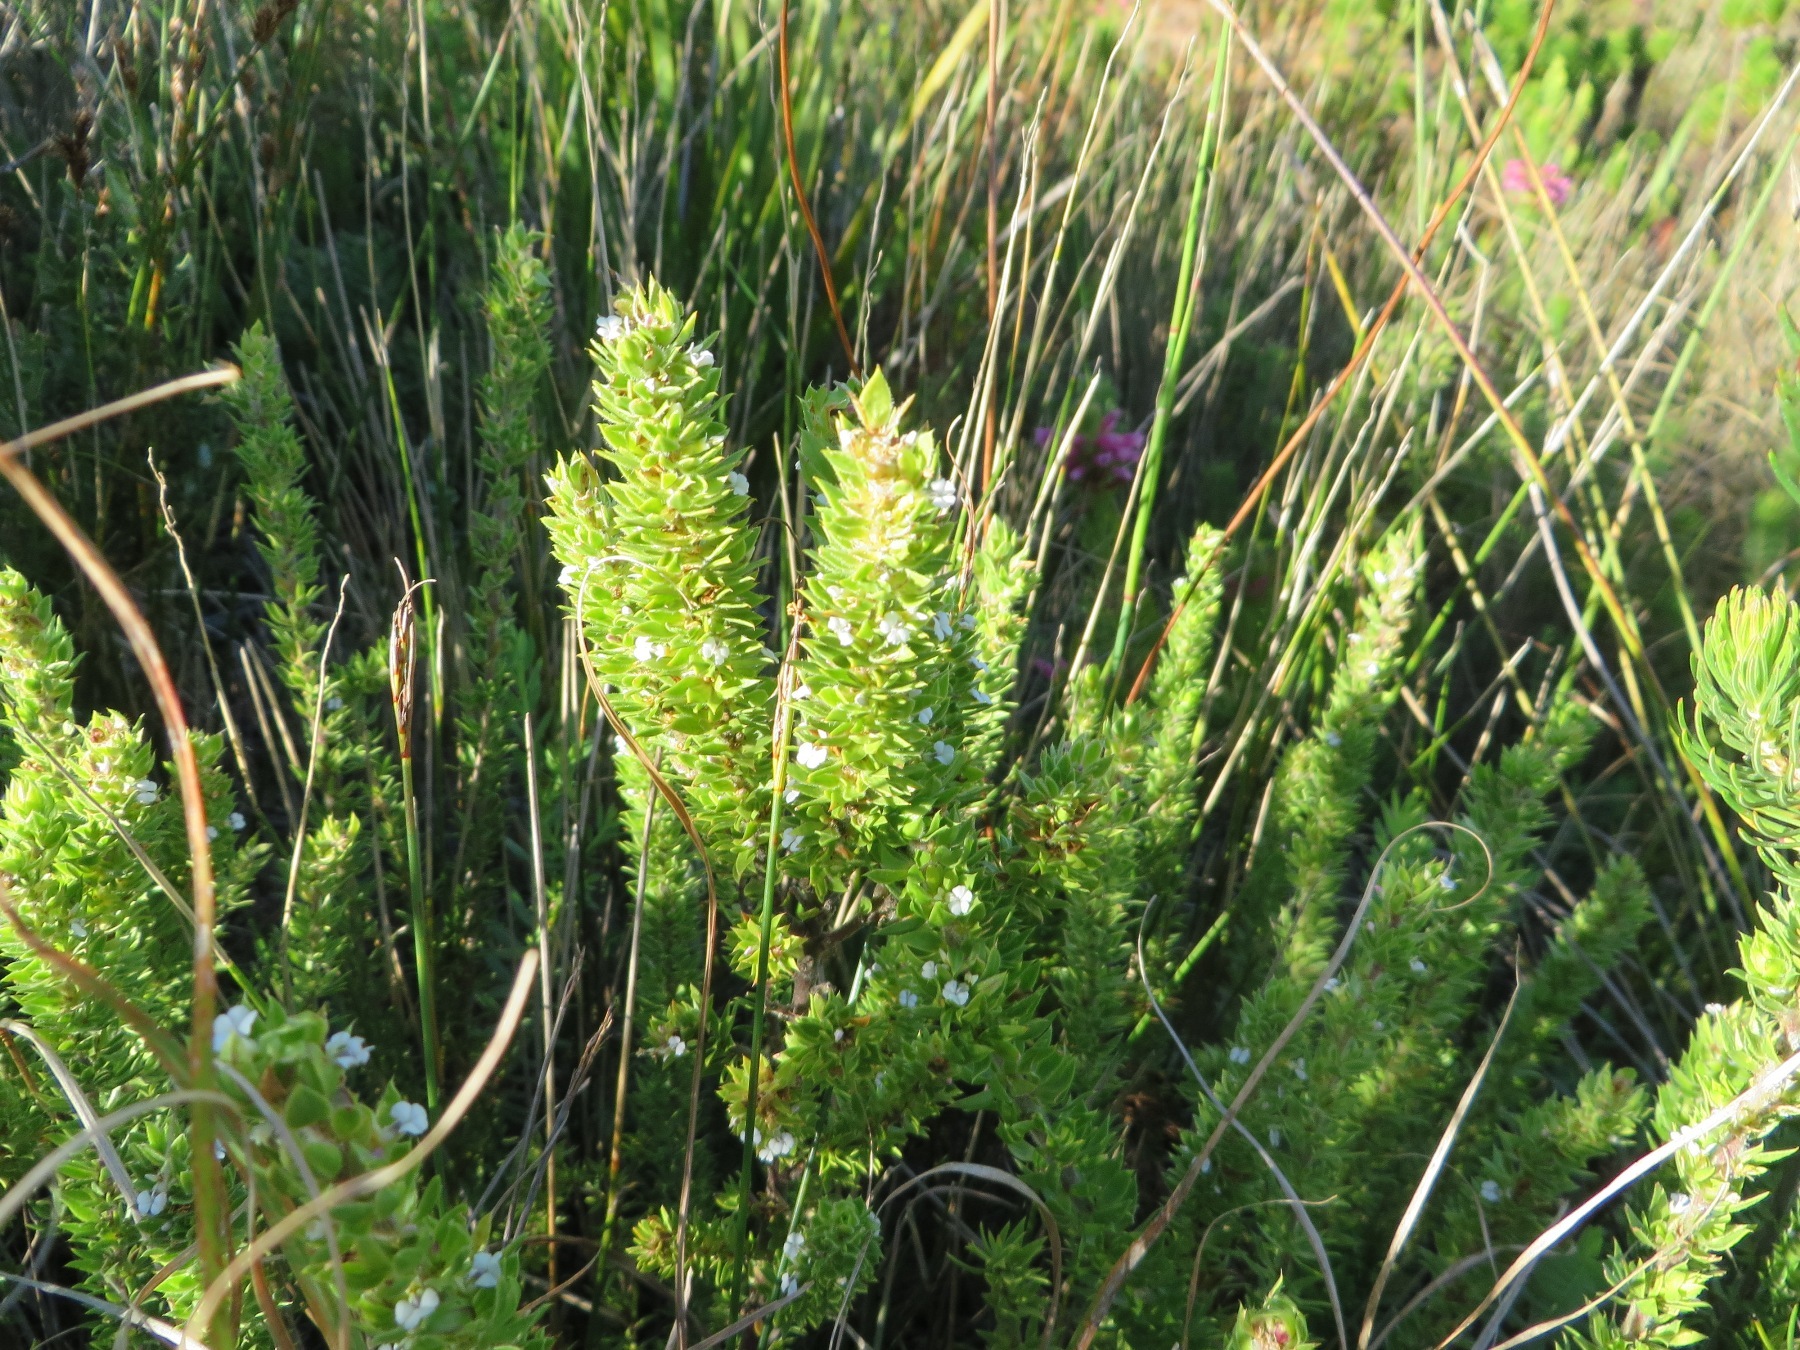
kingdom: Plantae
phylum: Tracheophyta
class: Magnoliopsida
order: Fabales
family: Polygalaceae
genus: Muraltia
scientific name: Muraltia alba
